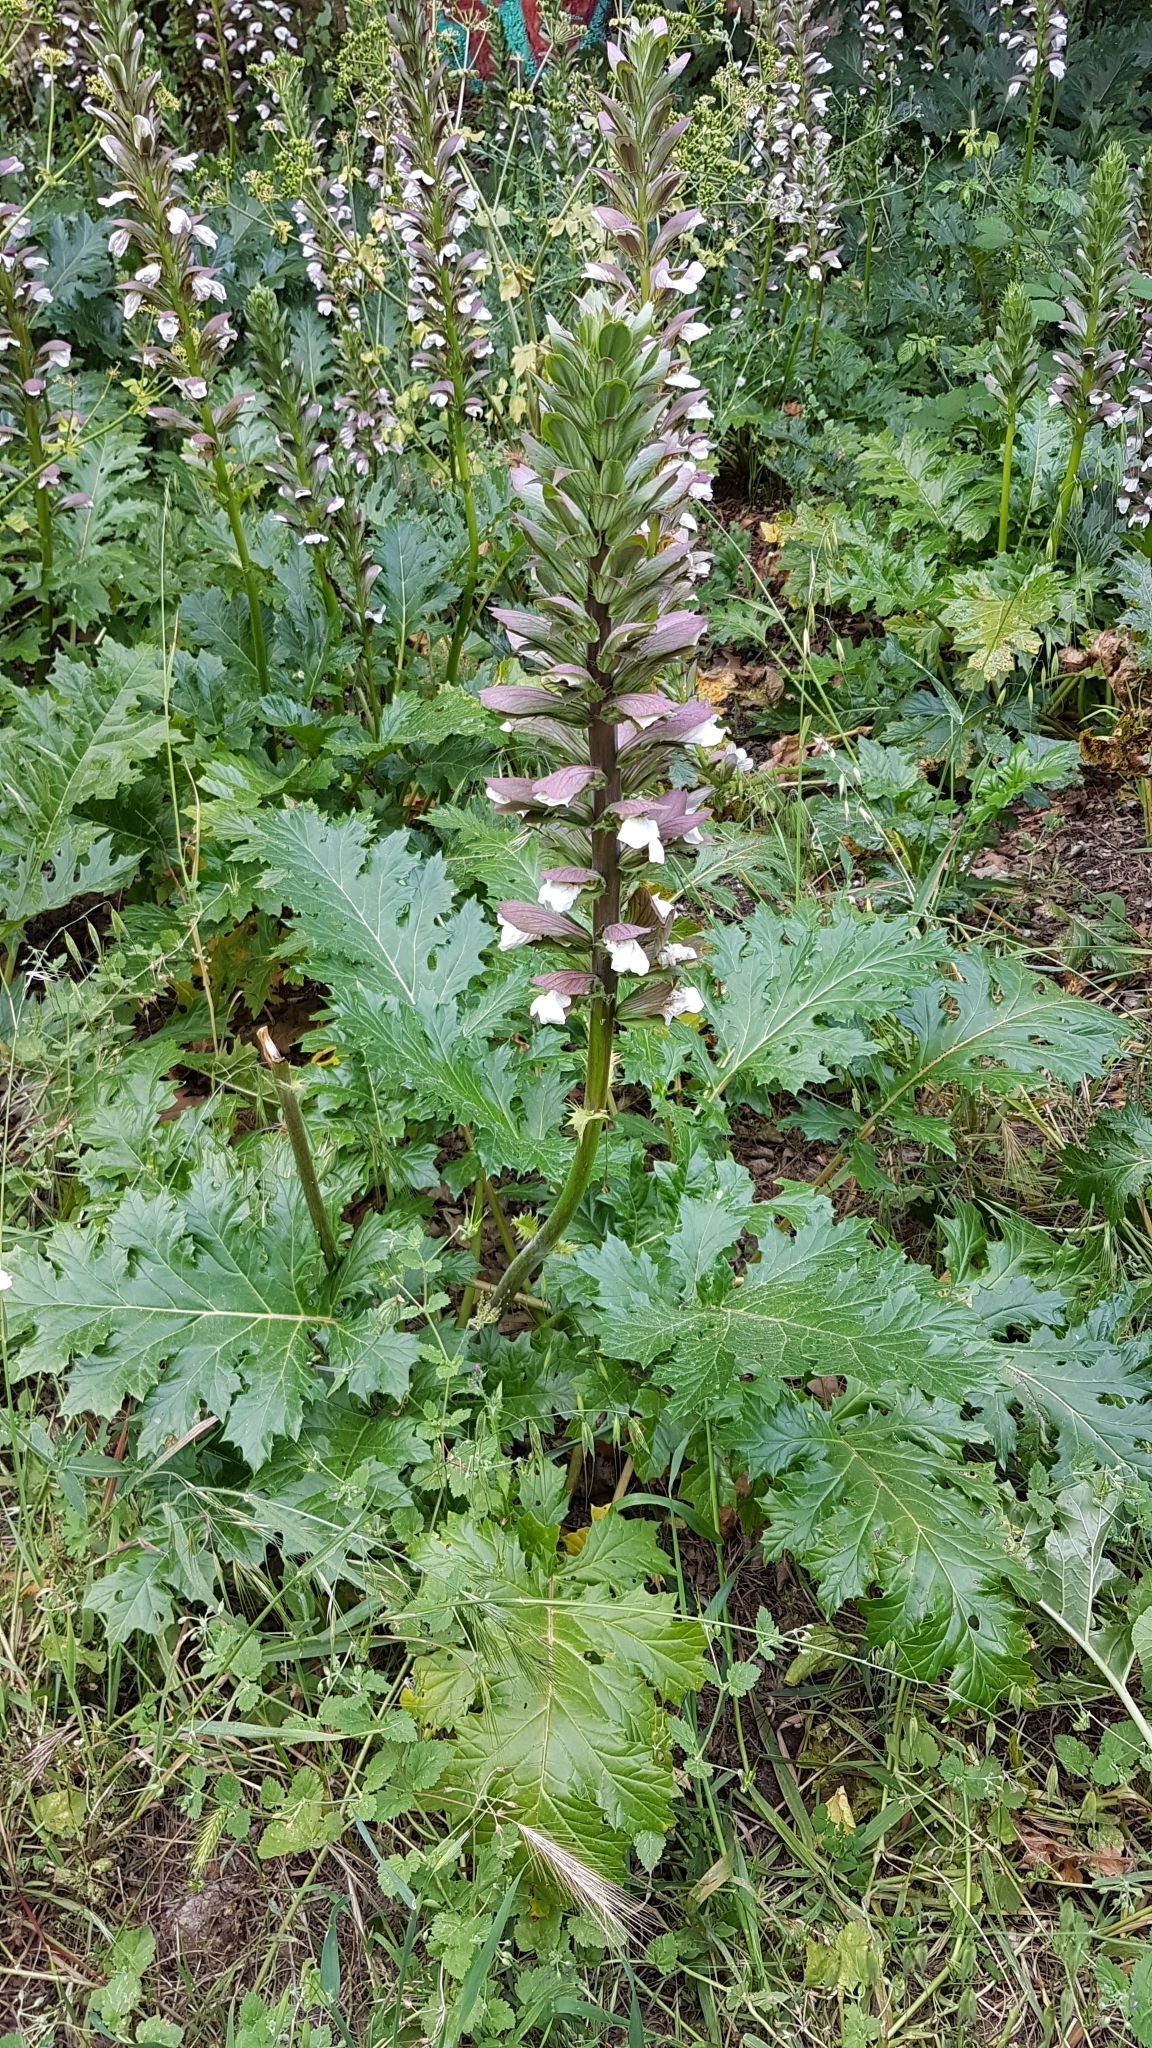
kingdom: Plantae
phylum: Tracheophyta
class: Magnoliopsida
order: Lamiales
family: Acanthaceae
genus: Acanthus
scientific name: Acanthus mollis
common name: Bear's-breech
